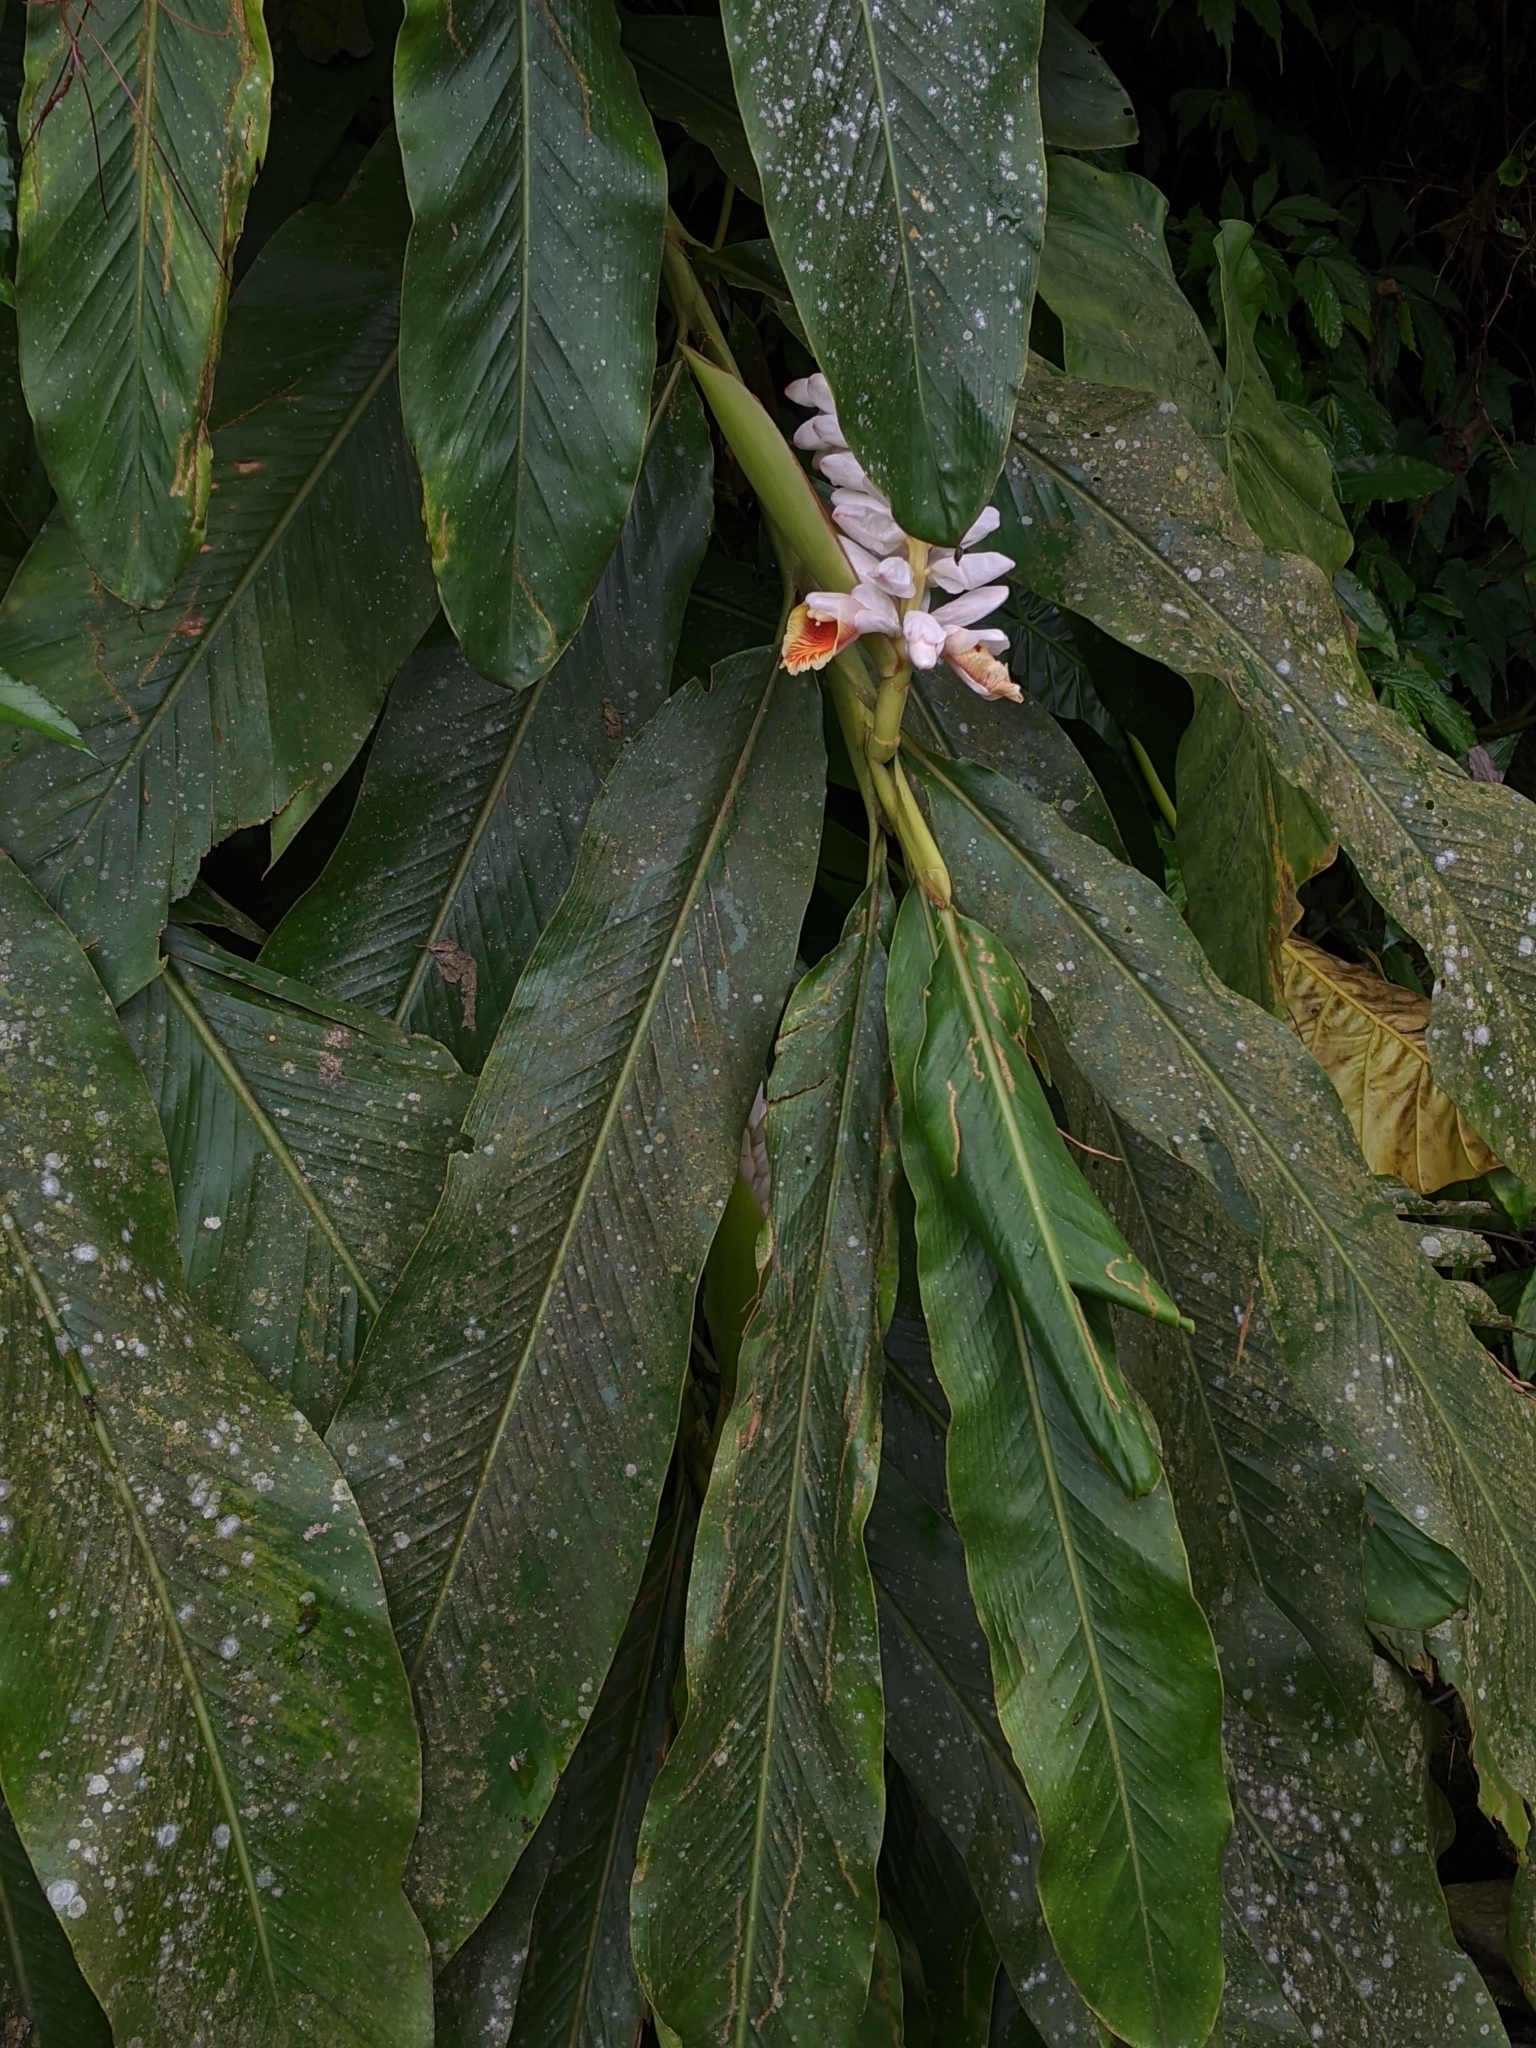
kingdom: Plantae
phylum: Tracheophyta
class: Liliopsida
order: Zingiberales
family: Zingiberaceae
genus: Alpinia
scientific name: Alpinia uraiensis
